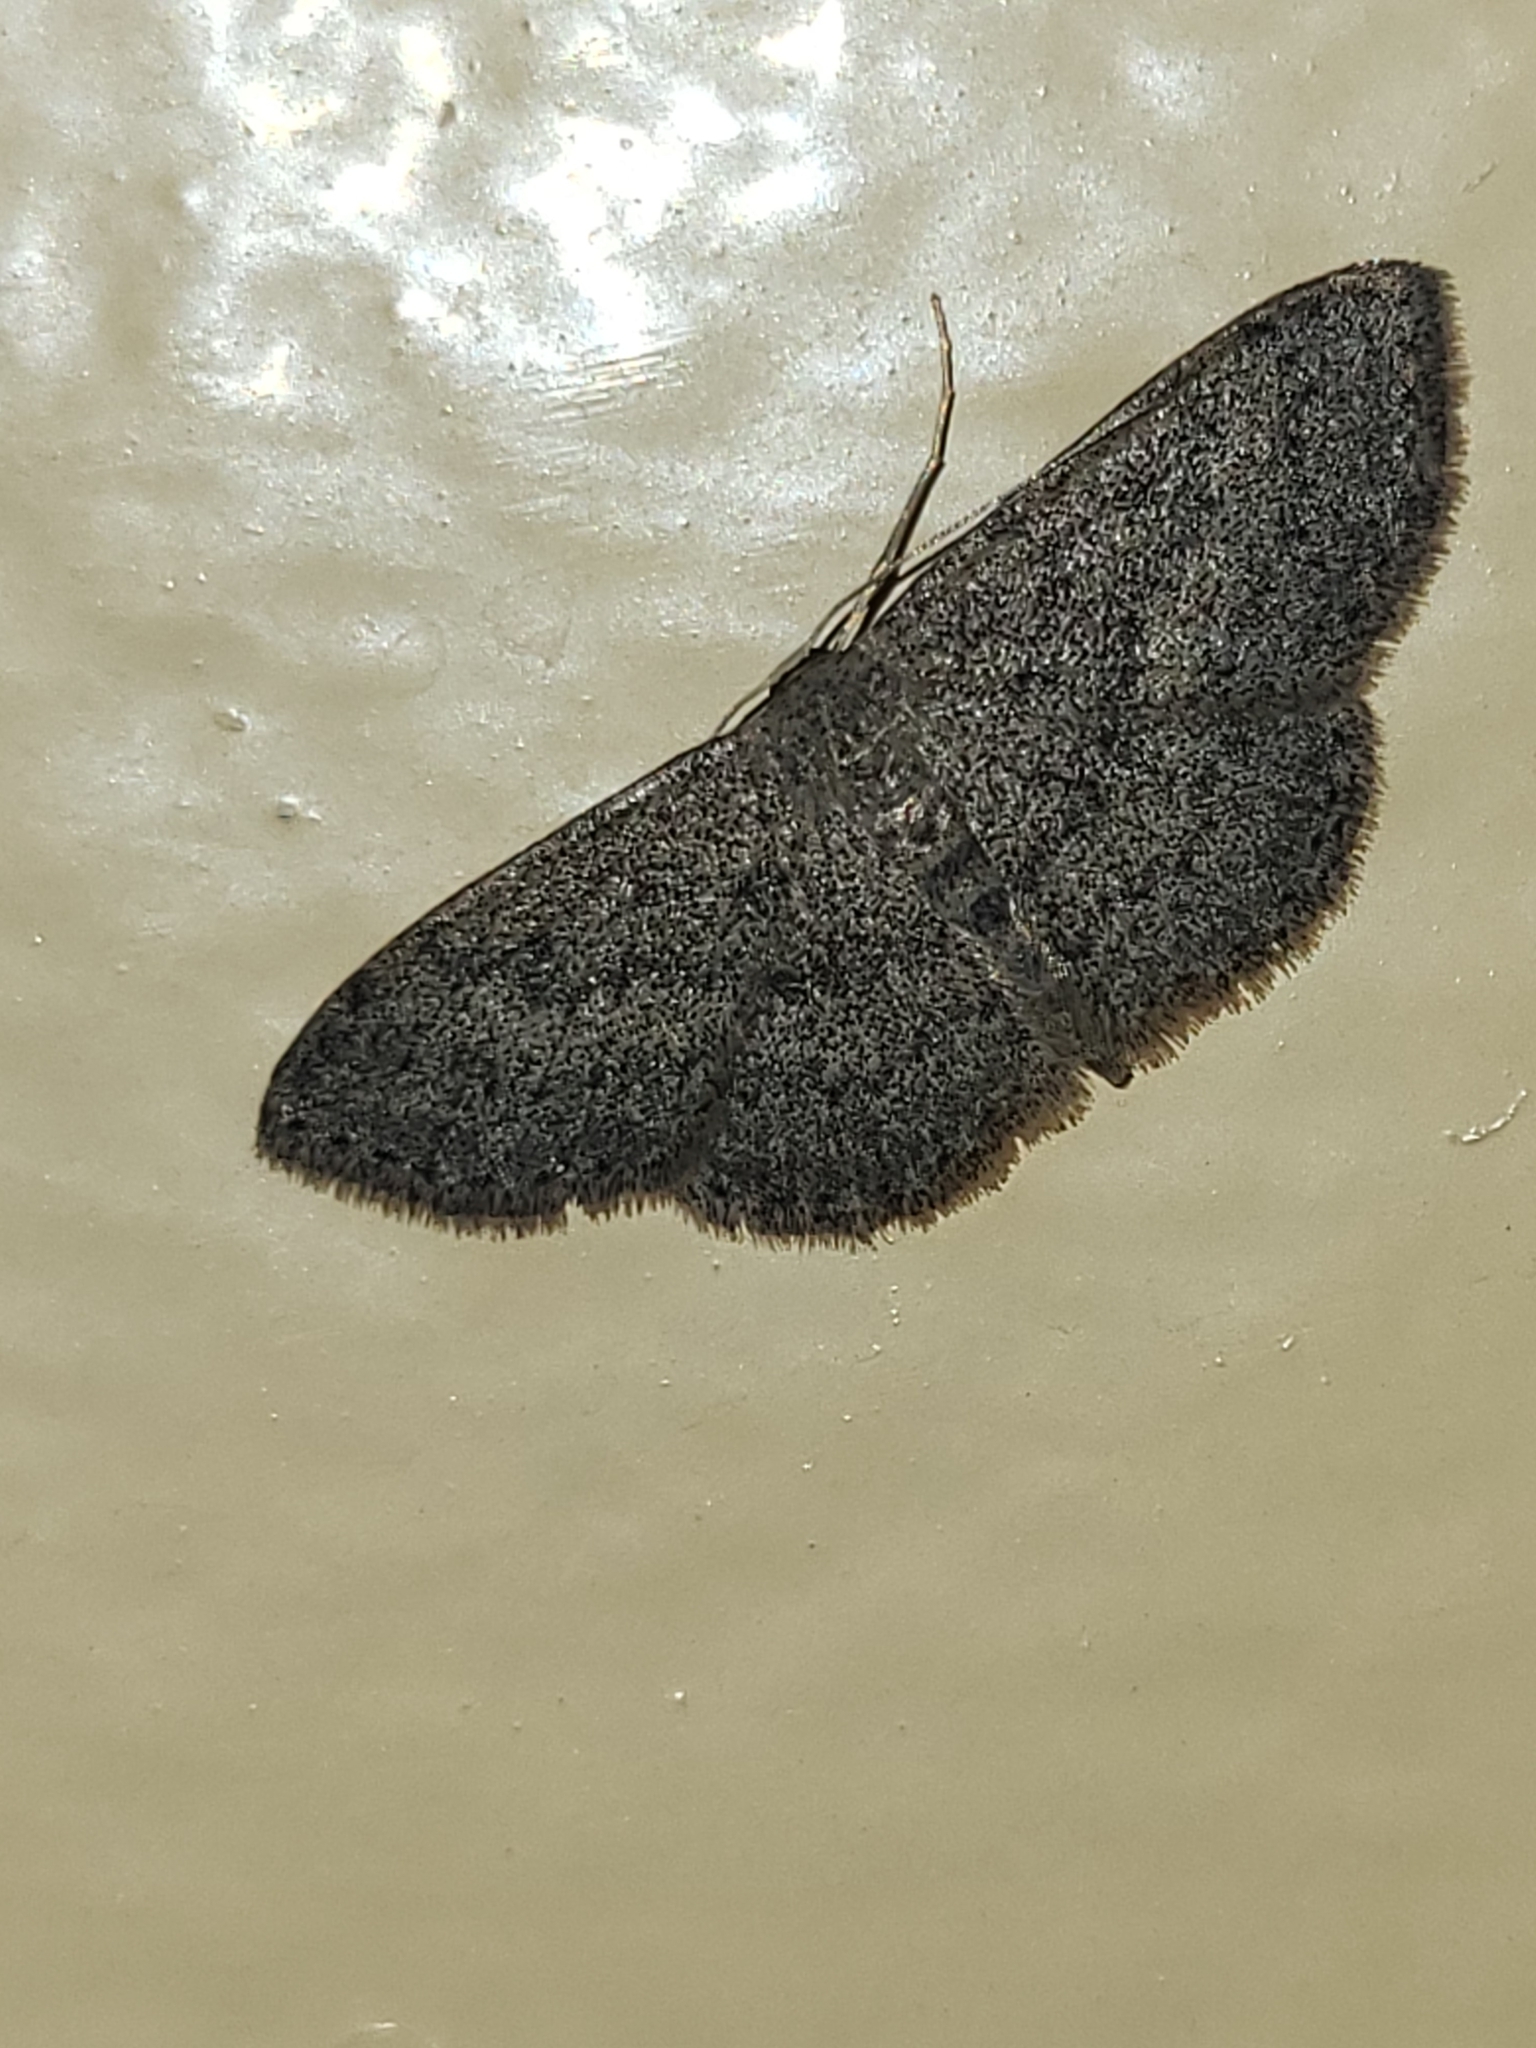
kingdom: Animalia
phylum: Arthropoda
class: Insecta
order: Lepidoptera
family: Geometridae
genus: Scopula
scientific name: Scopula paneliusi
